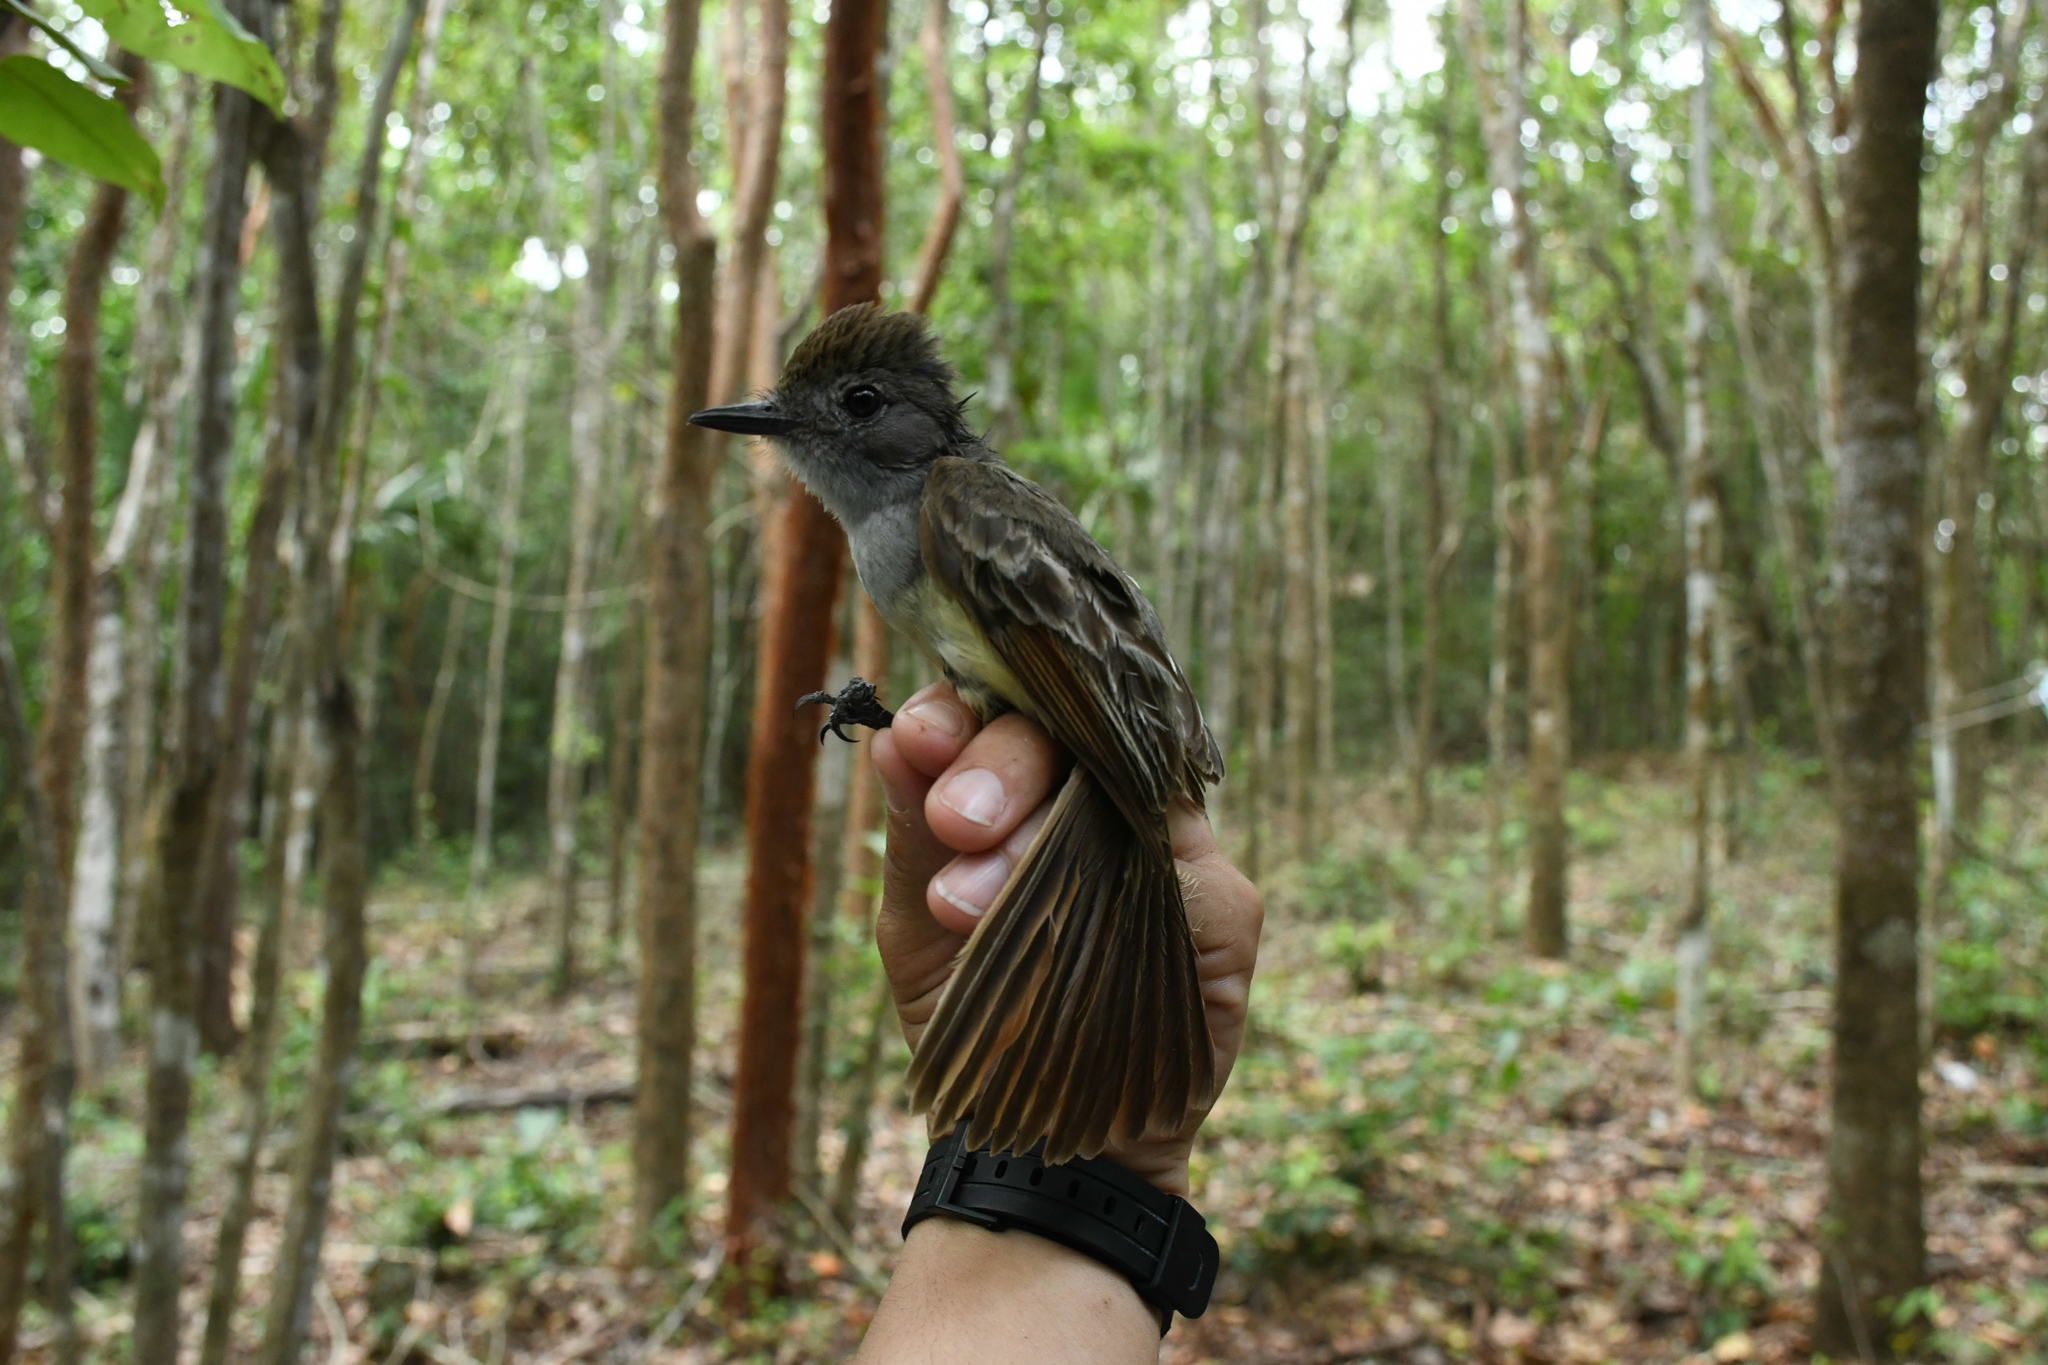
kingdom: Animalia
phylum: Chordata
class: Aves
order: Passeriformes
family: Tyrannidae
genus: Myiarchus
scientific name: Myiarchus tyrannulus
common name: Brown-crested flycatcher
